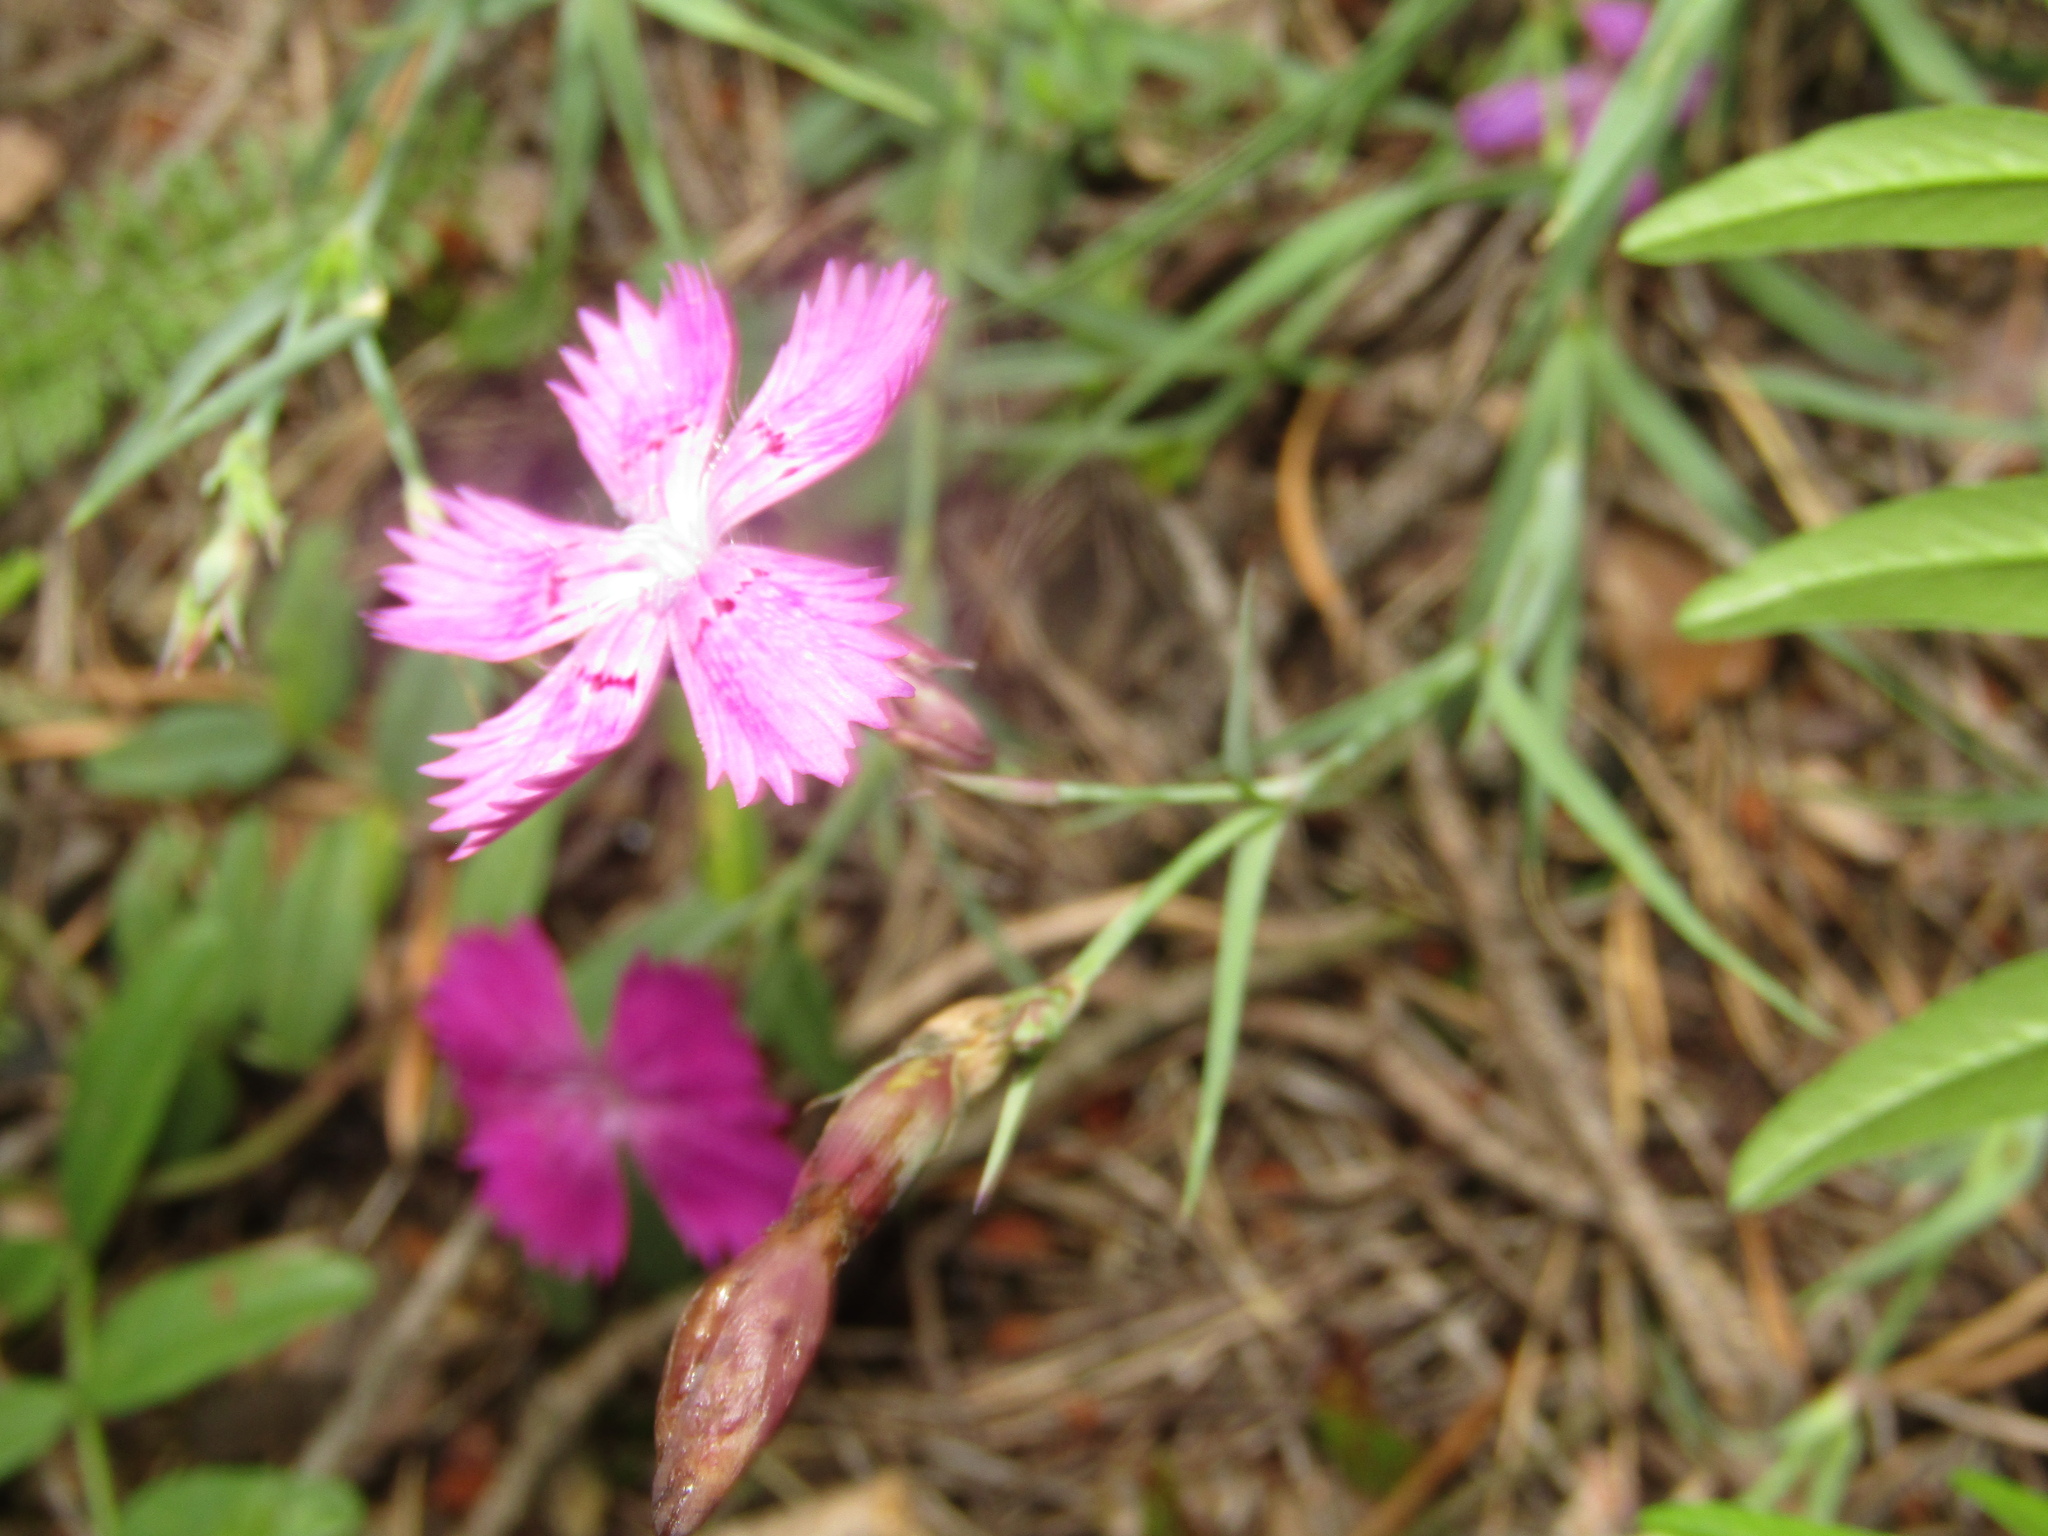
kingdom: Plantae
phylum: Tracheophyta
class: Magnoliopsida
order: Caryophyllales
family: Caryophyllaceae
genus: Dianthus
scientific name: Dianthus chinensis
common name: Rainbow pink
